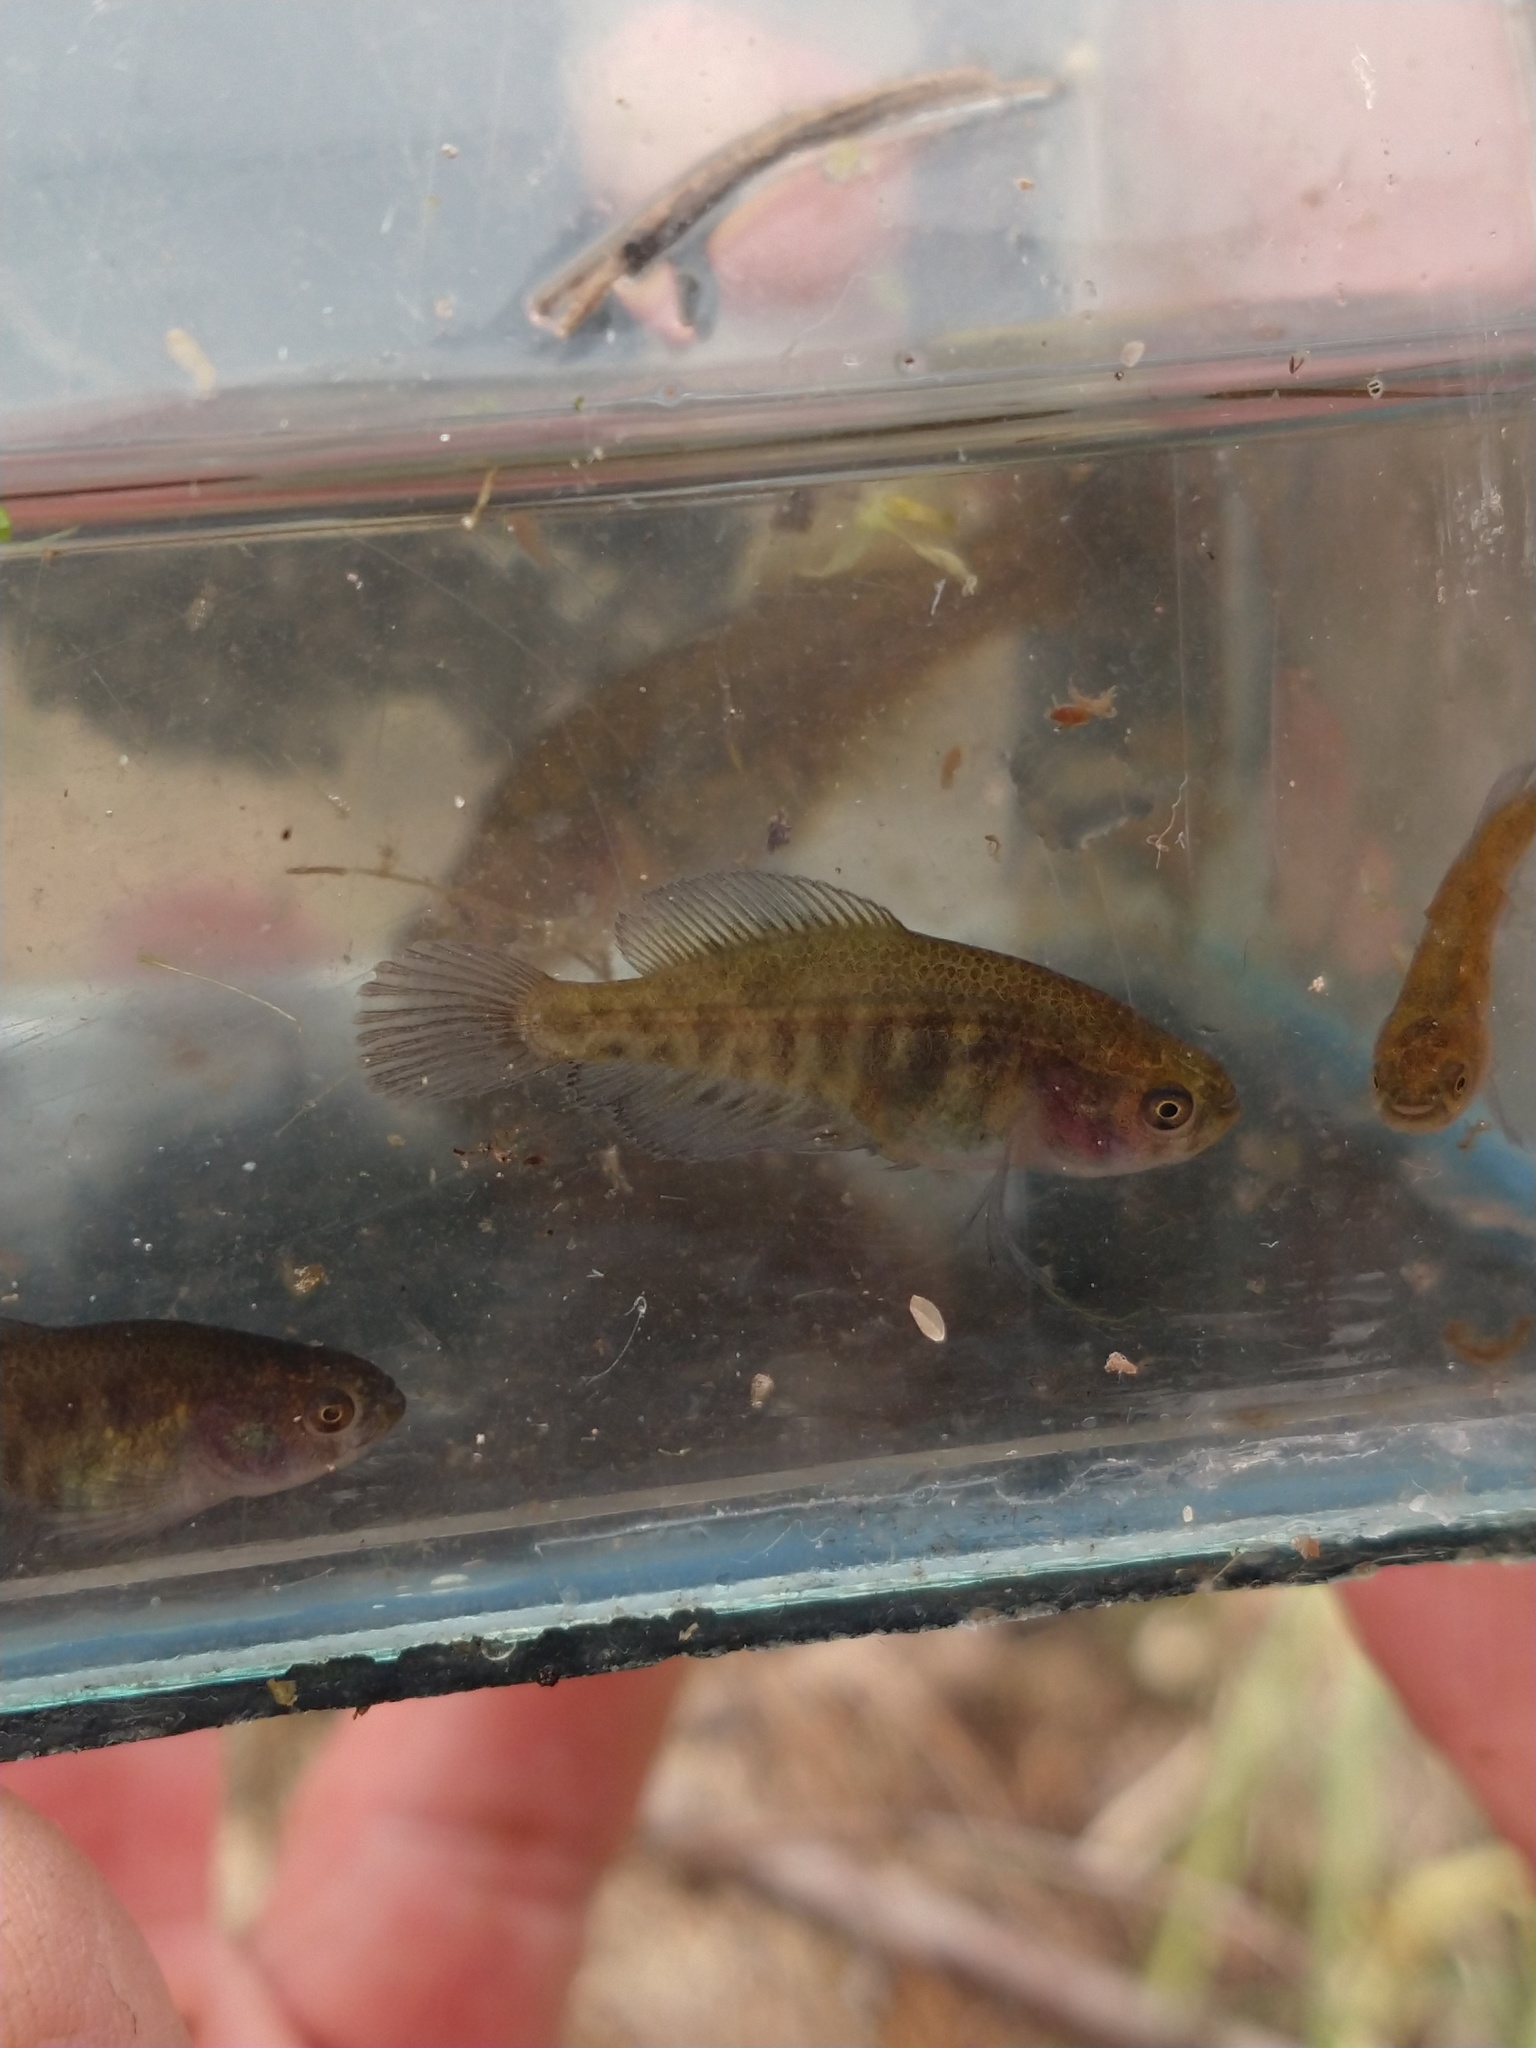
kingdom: Animalia
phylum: Chordata
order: Cyprinodontiformes
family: Rivulidae
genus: Austrolebias
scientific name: Austrolebias elongatus
